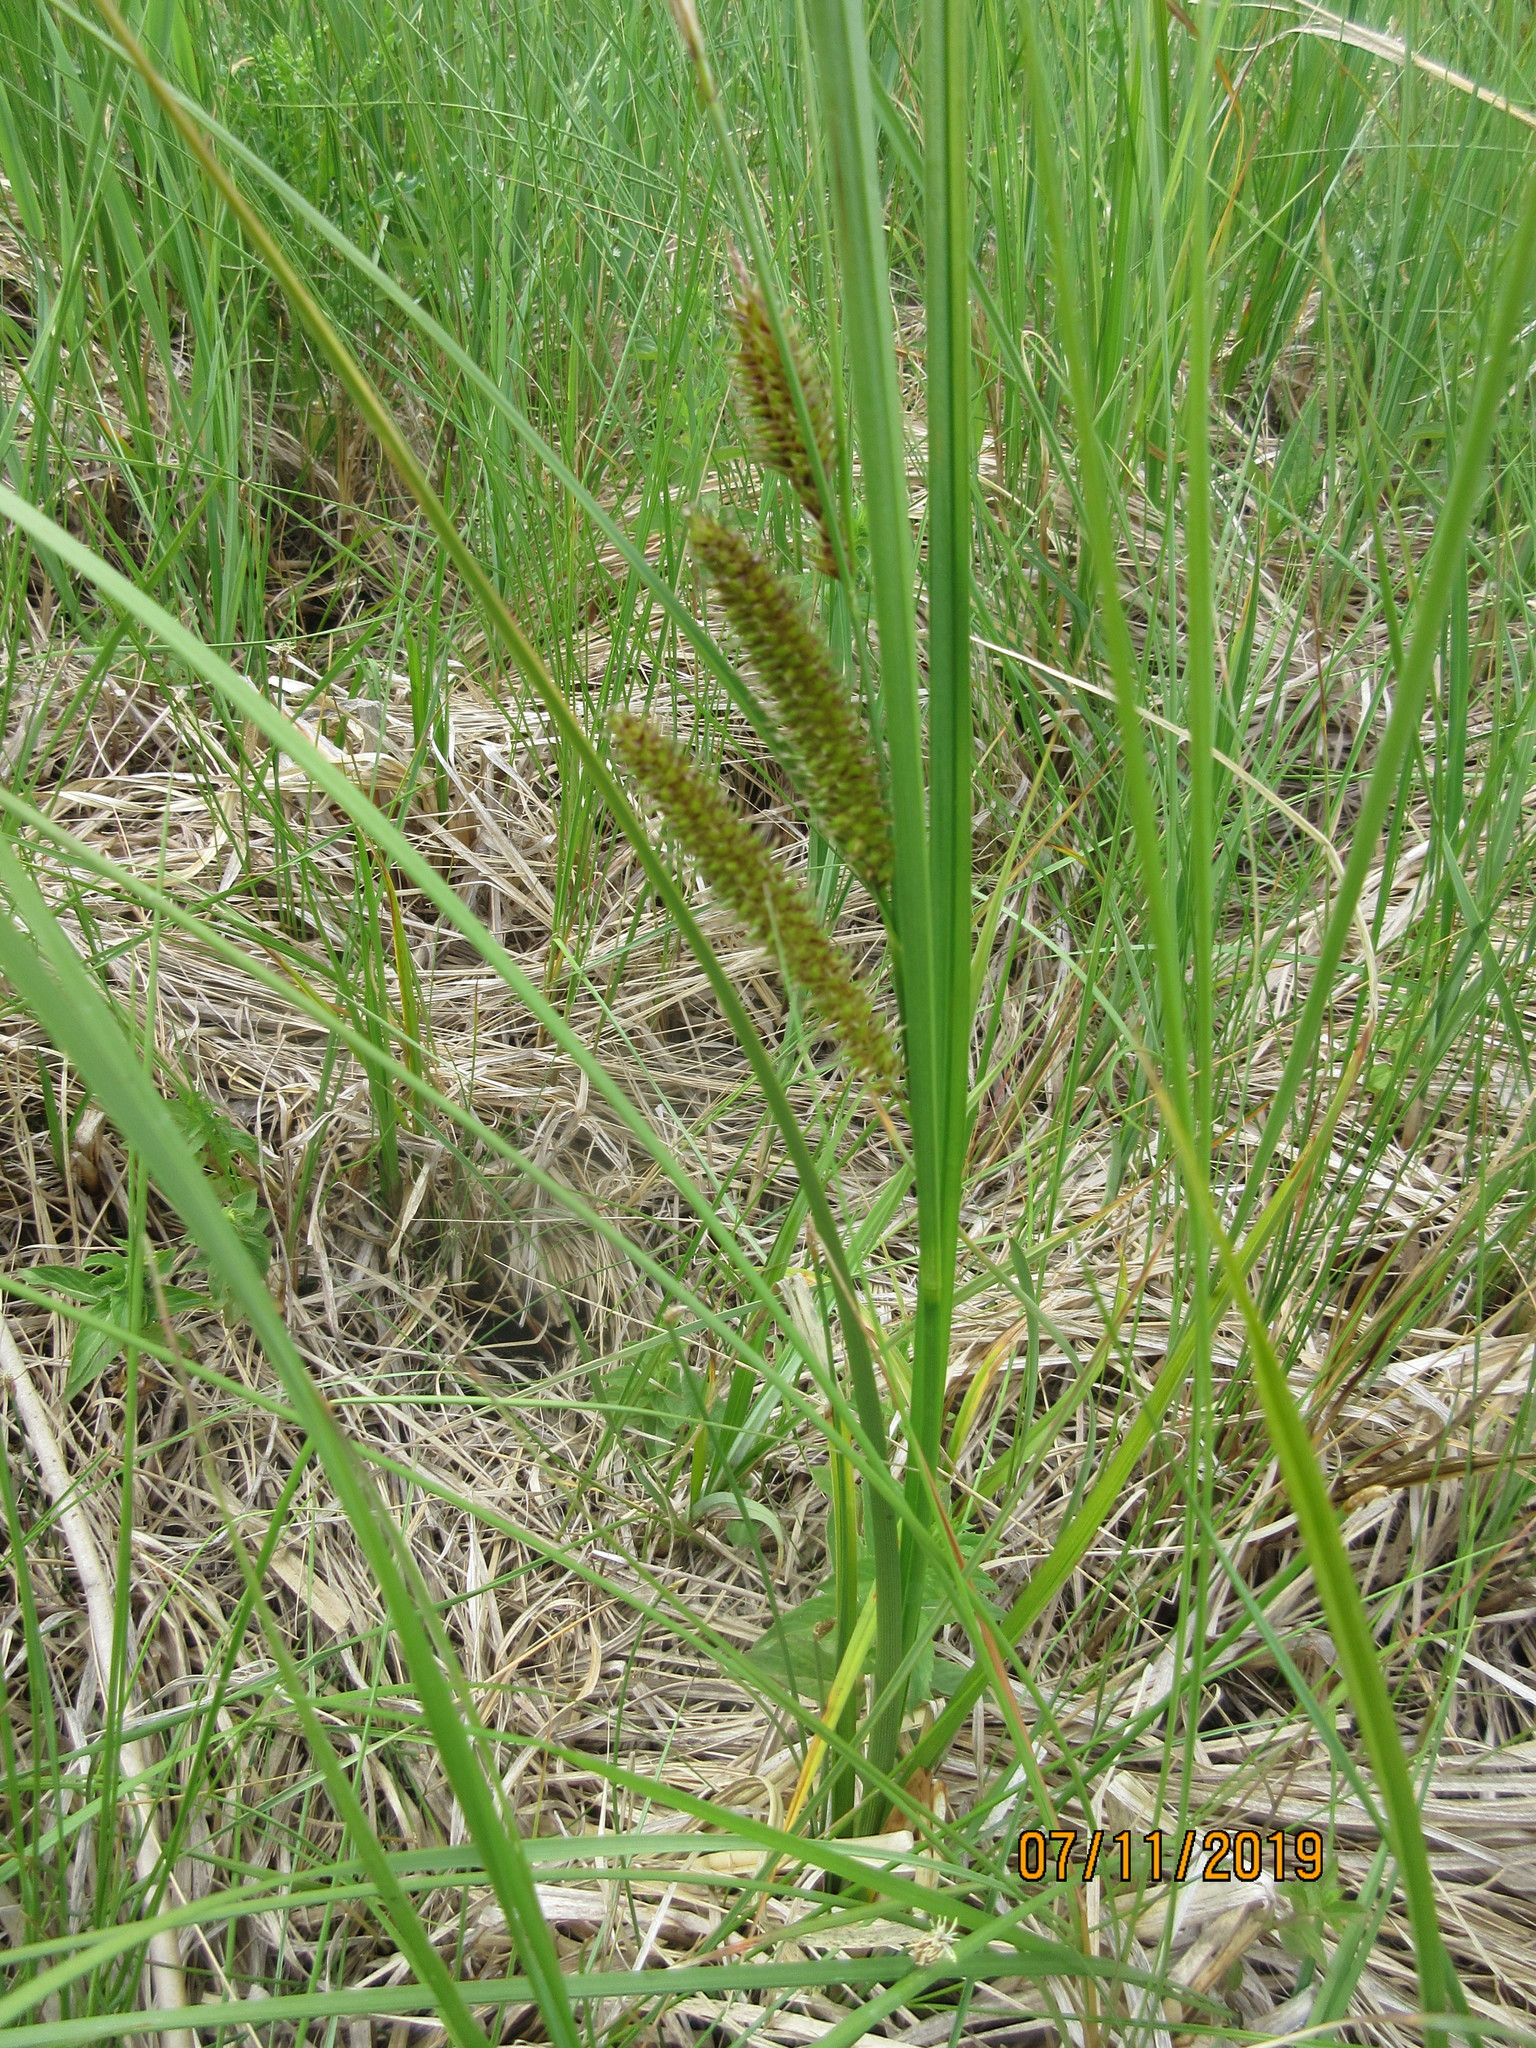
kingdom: Plantae
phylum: Tracheophyta
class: Liliopsida
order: Poales
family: Cyperaceae
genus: Carex
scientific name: Carex utriculata
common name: Beaked sedge
